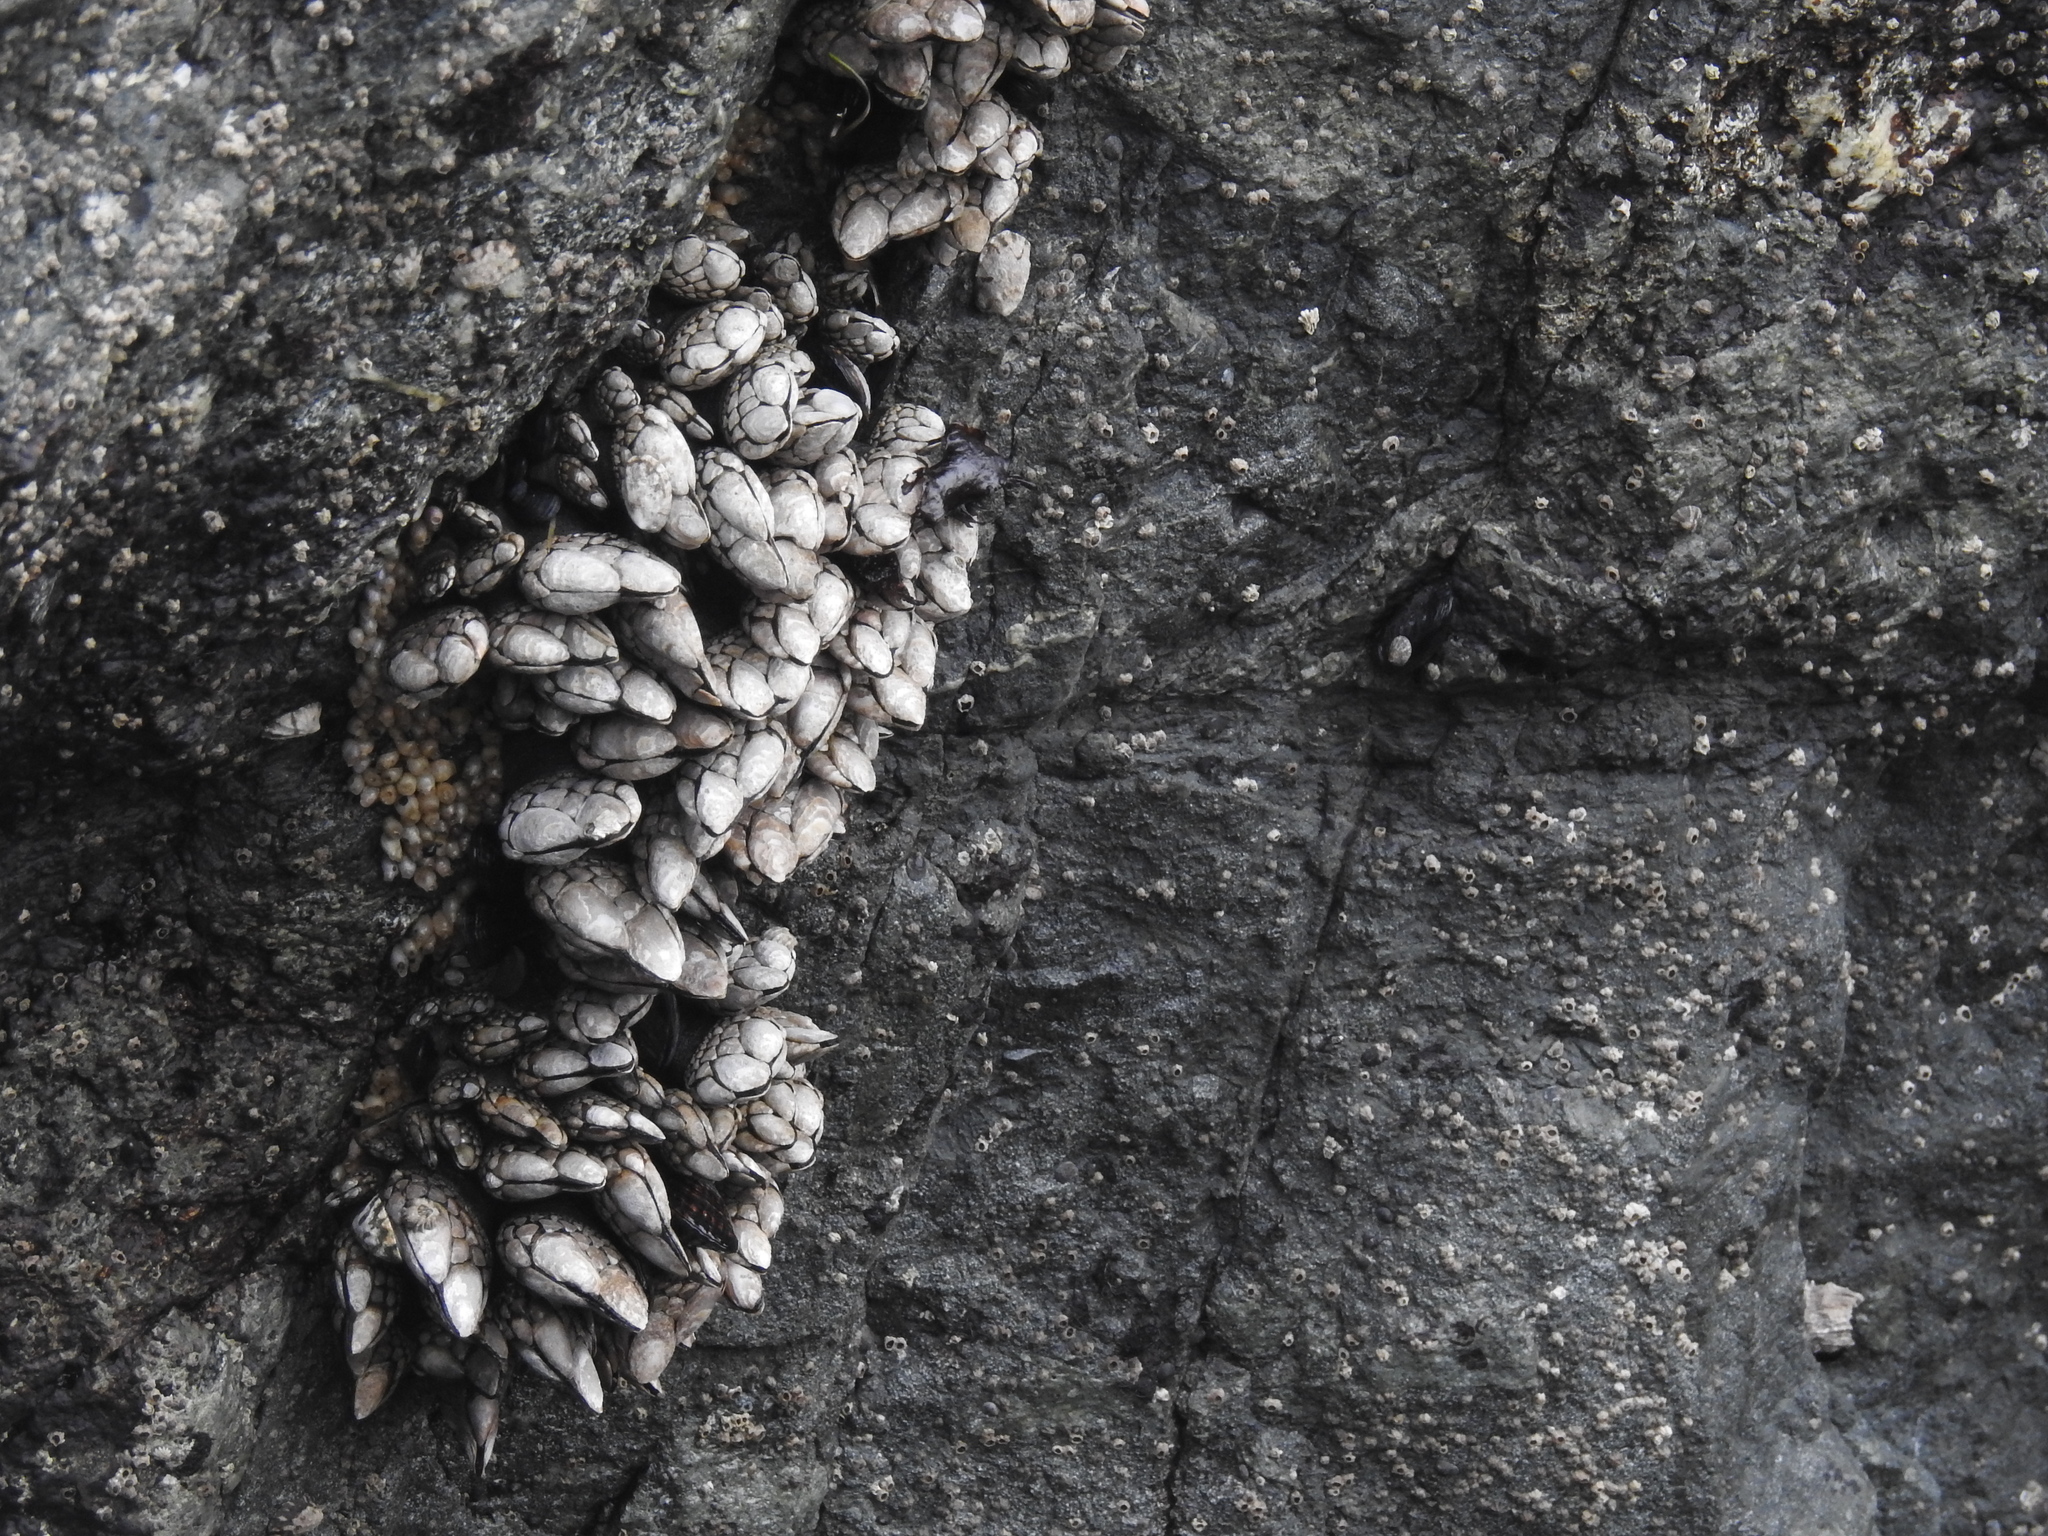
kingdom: Animalia
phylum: Arthropoda
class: Maxillopoda
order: Pedunculata
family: Pollicipedidae
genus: Pollicipes
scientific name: Pollicipes polymerus
